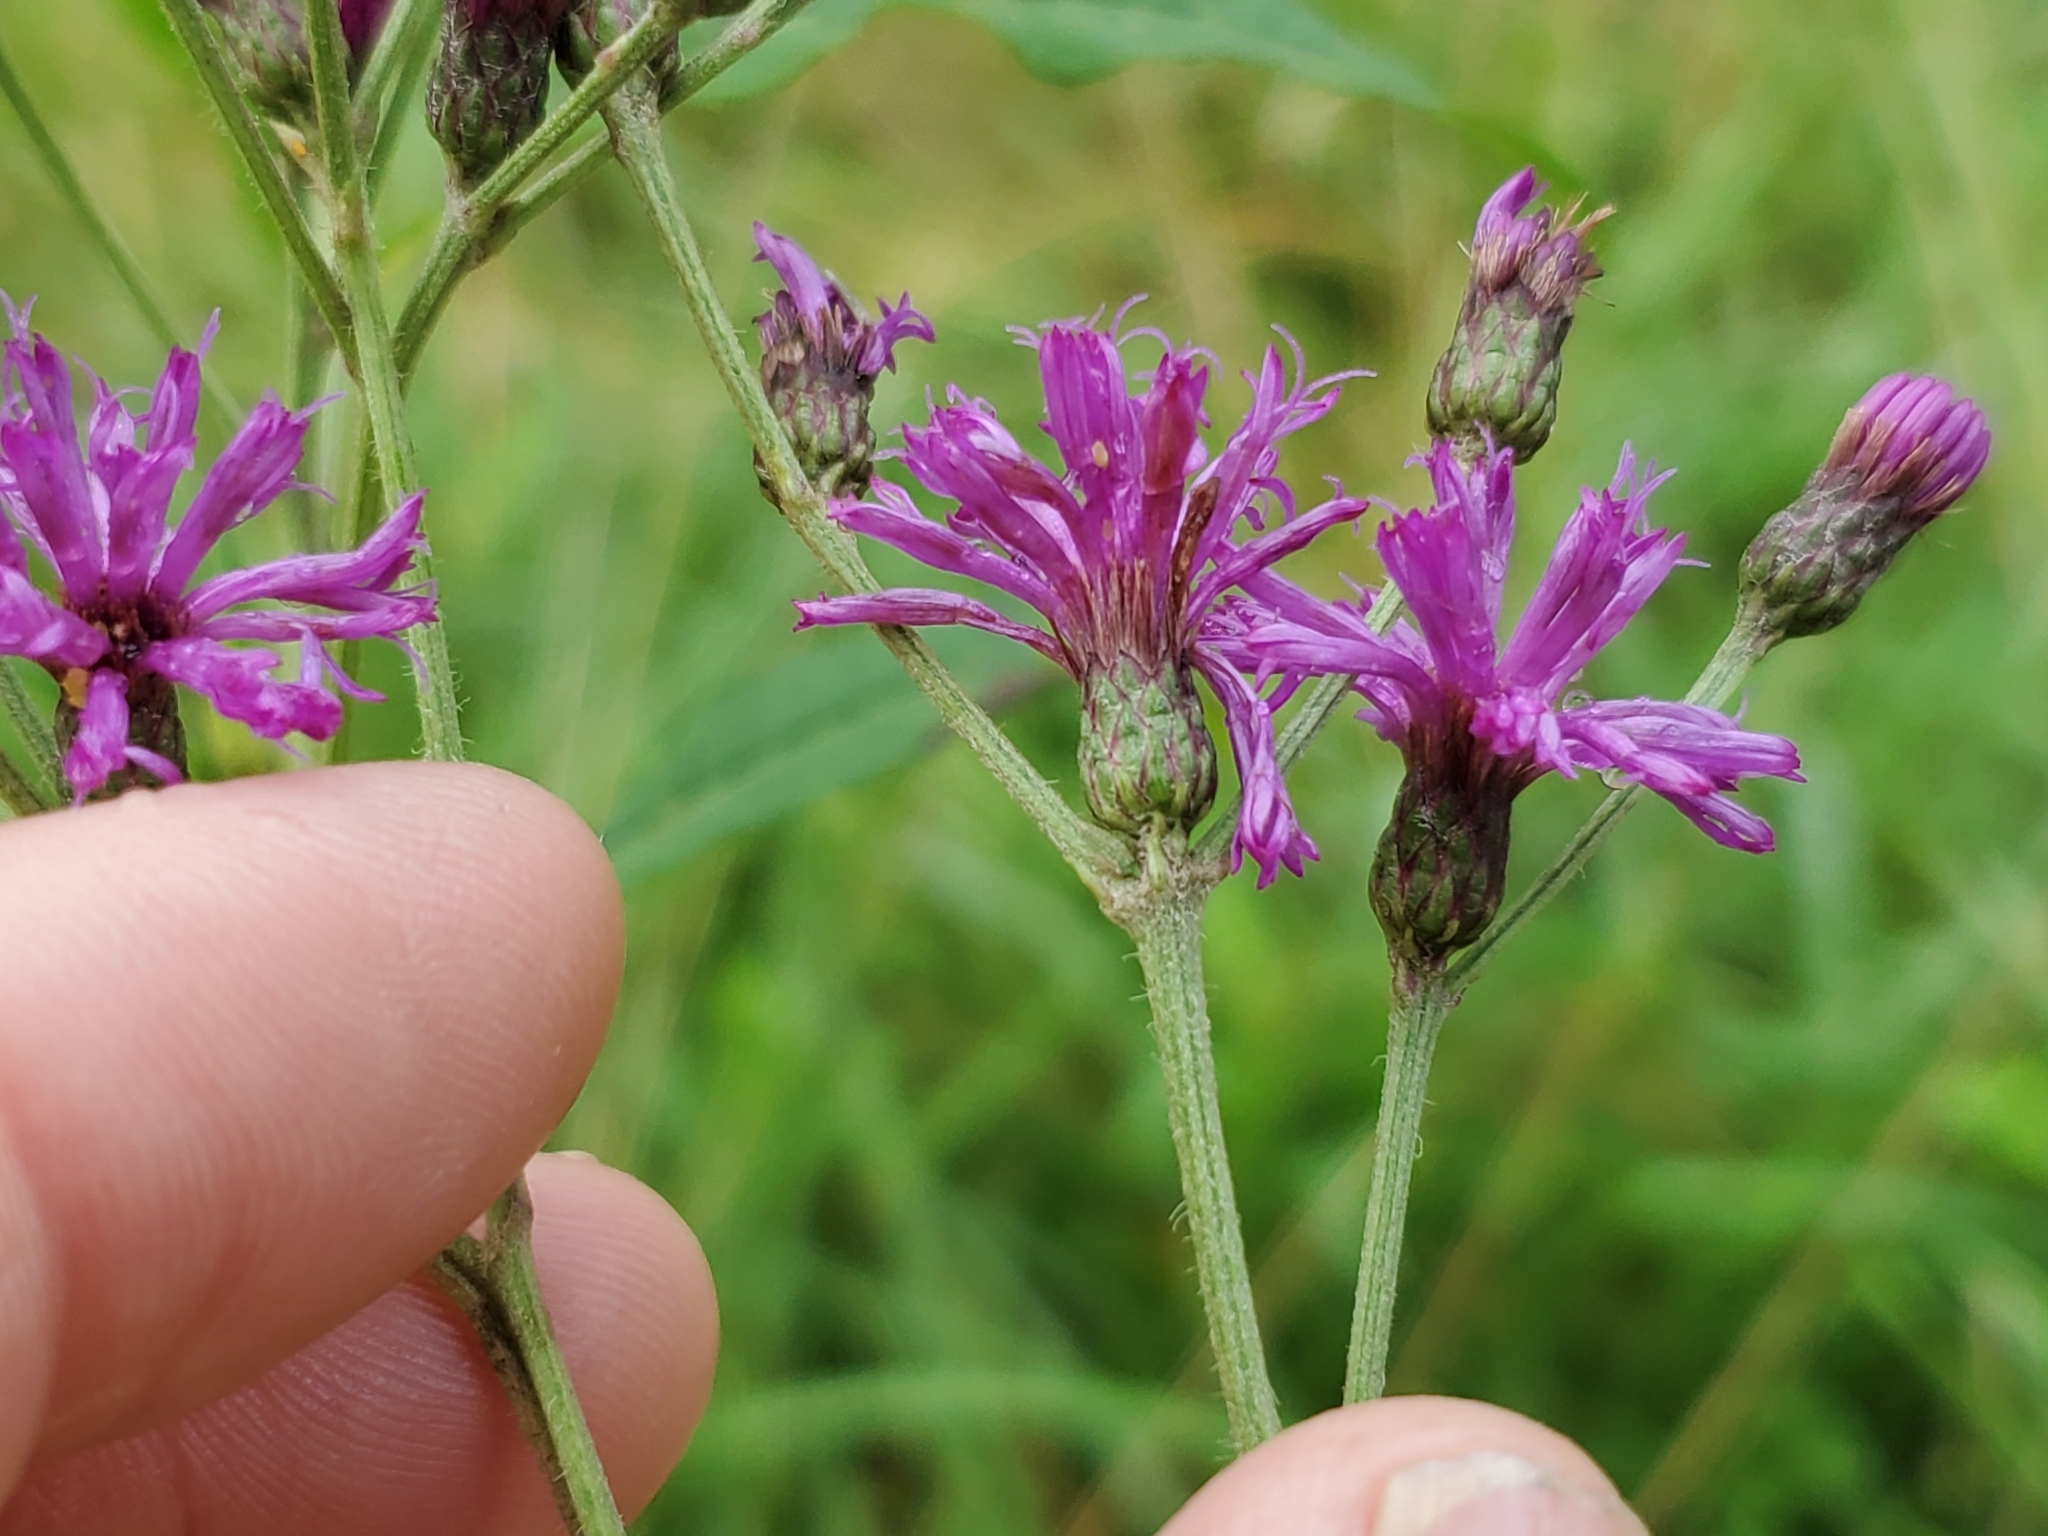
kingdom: Plantae
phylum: Tracheophyta
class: Magnoliopsida
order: Asterales
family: Asteraceae
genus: Vernonia
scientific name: Vernonia gigantea
